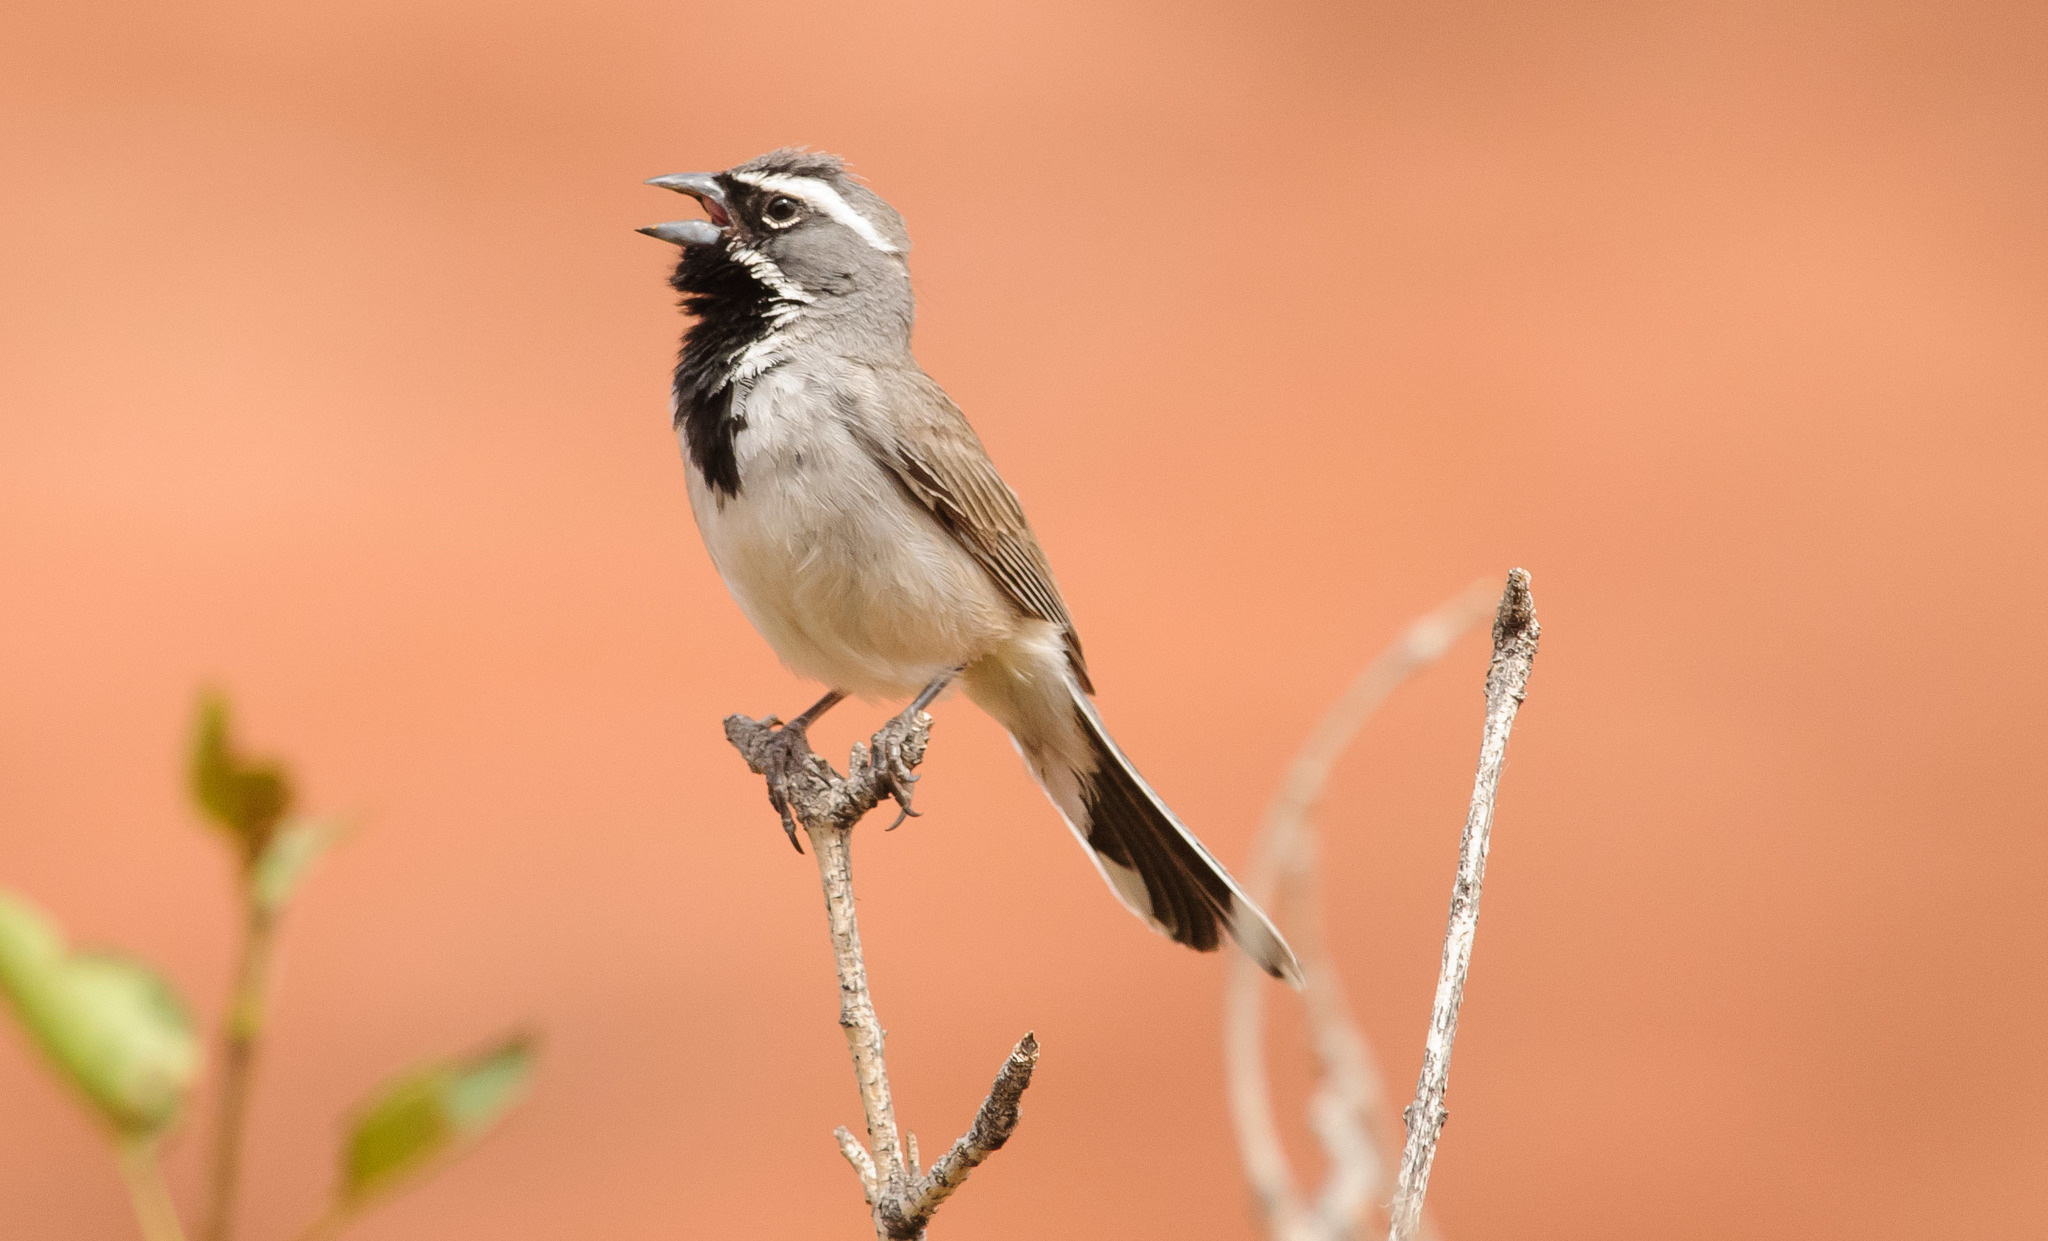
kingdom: Animalia
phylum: Chordata
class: Aves
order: Passeriformes
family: Passerellidae
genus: Amphispiza
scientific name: Amphispiza bilineata
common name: Black-throated sparrow
